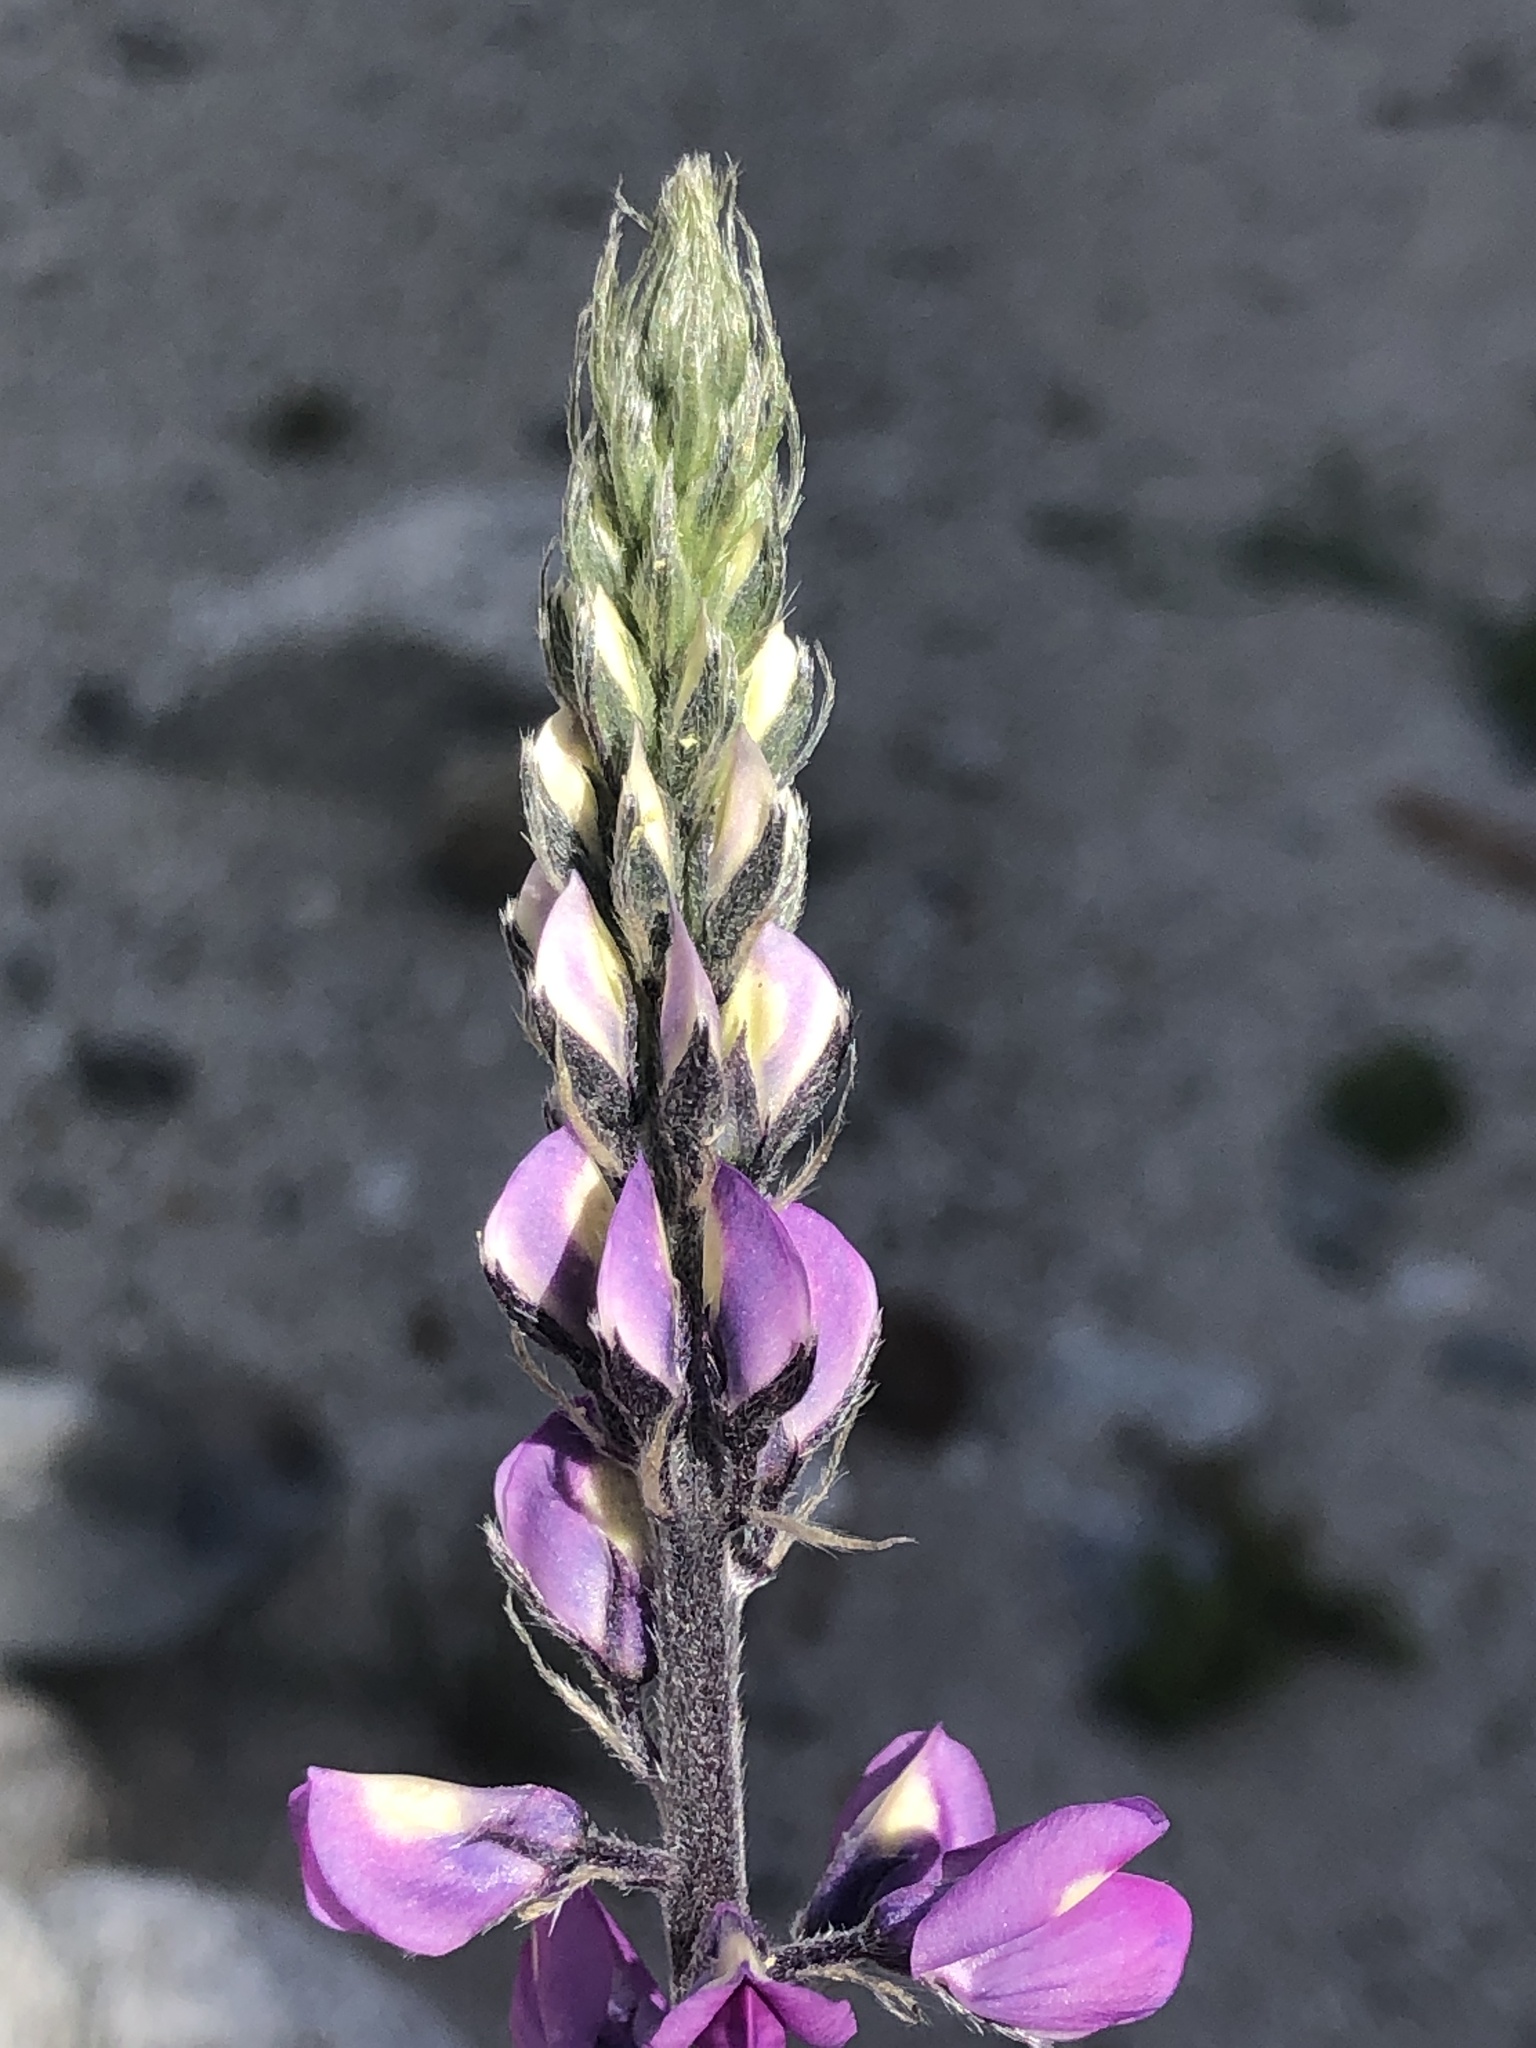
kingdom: Plantae
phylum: Tracheophyta
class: Magnoliopsida
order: Fabales
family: Fabaceae
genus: Lupinus
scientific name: Lupinus arizonicus
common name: Arizona lupine
